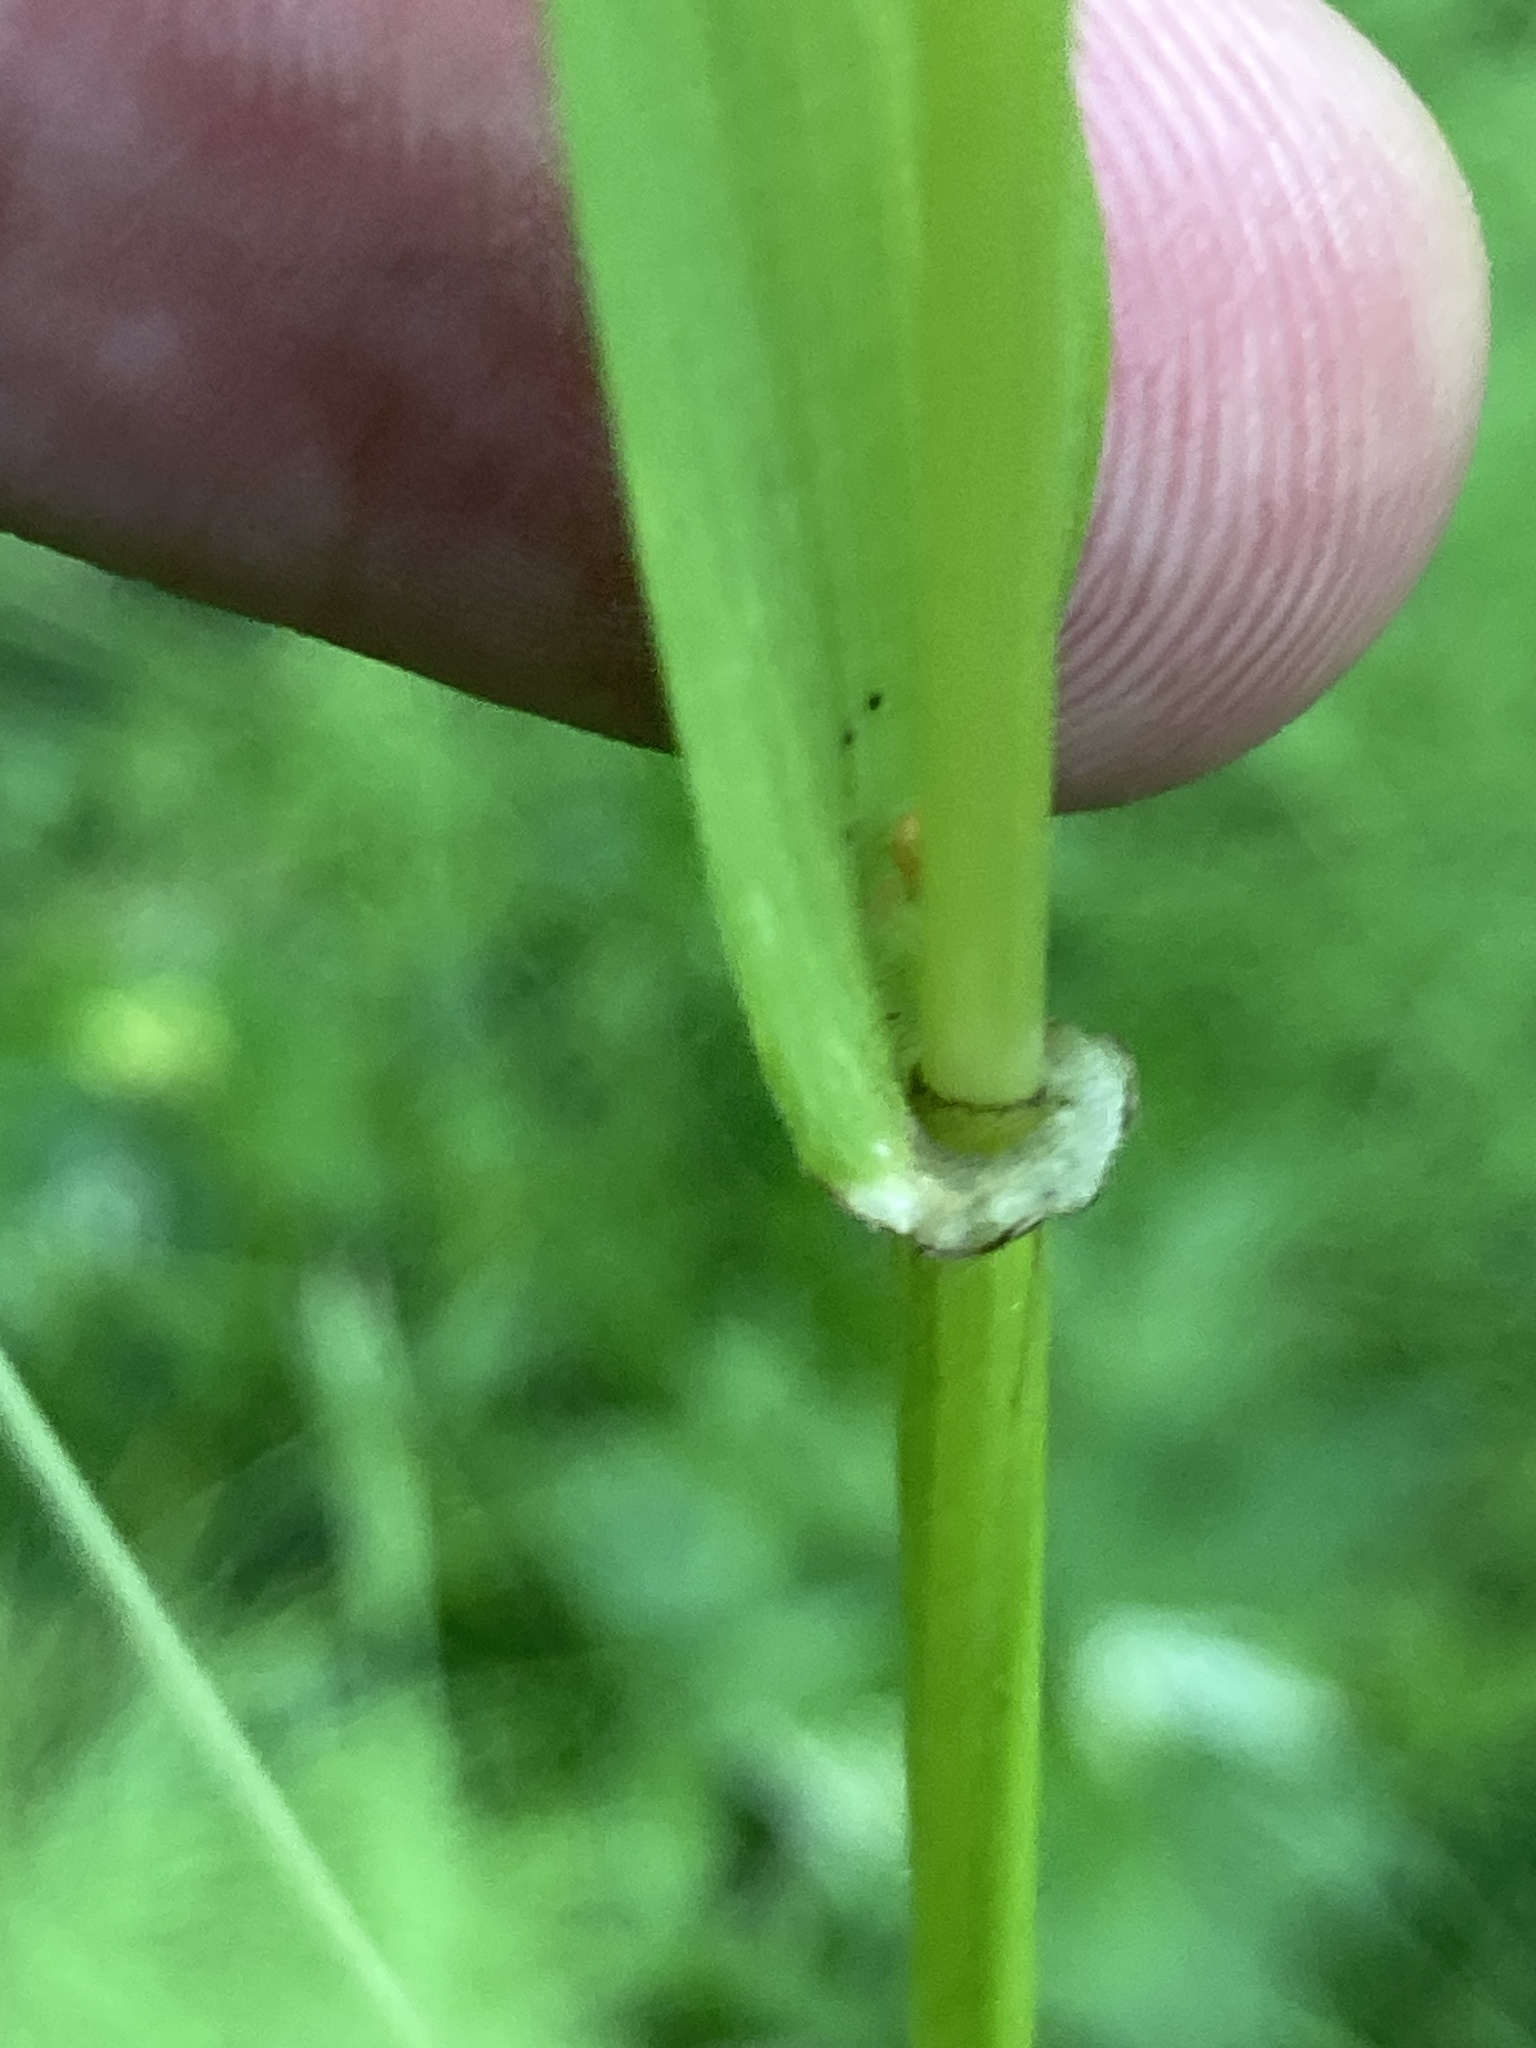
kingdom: Plantae
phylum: Tracheophyta
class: Liliopsida
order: Poales
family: Poaceae
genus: Lolium
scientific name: Lolium giganteum
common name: Giant fescue
